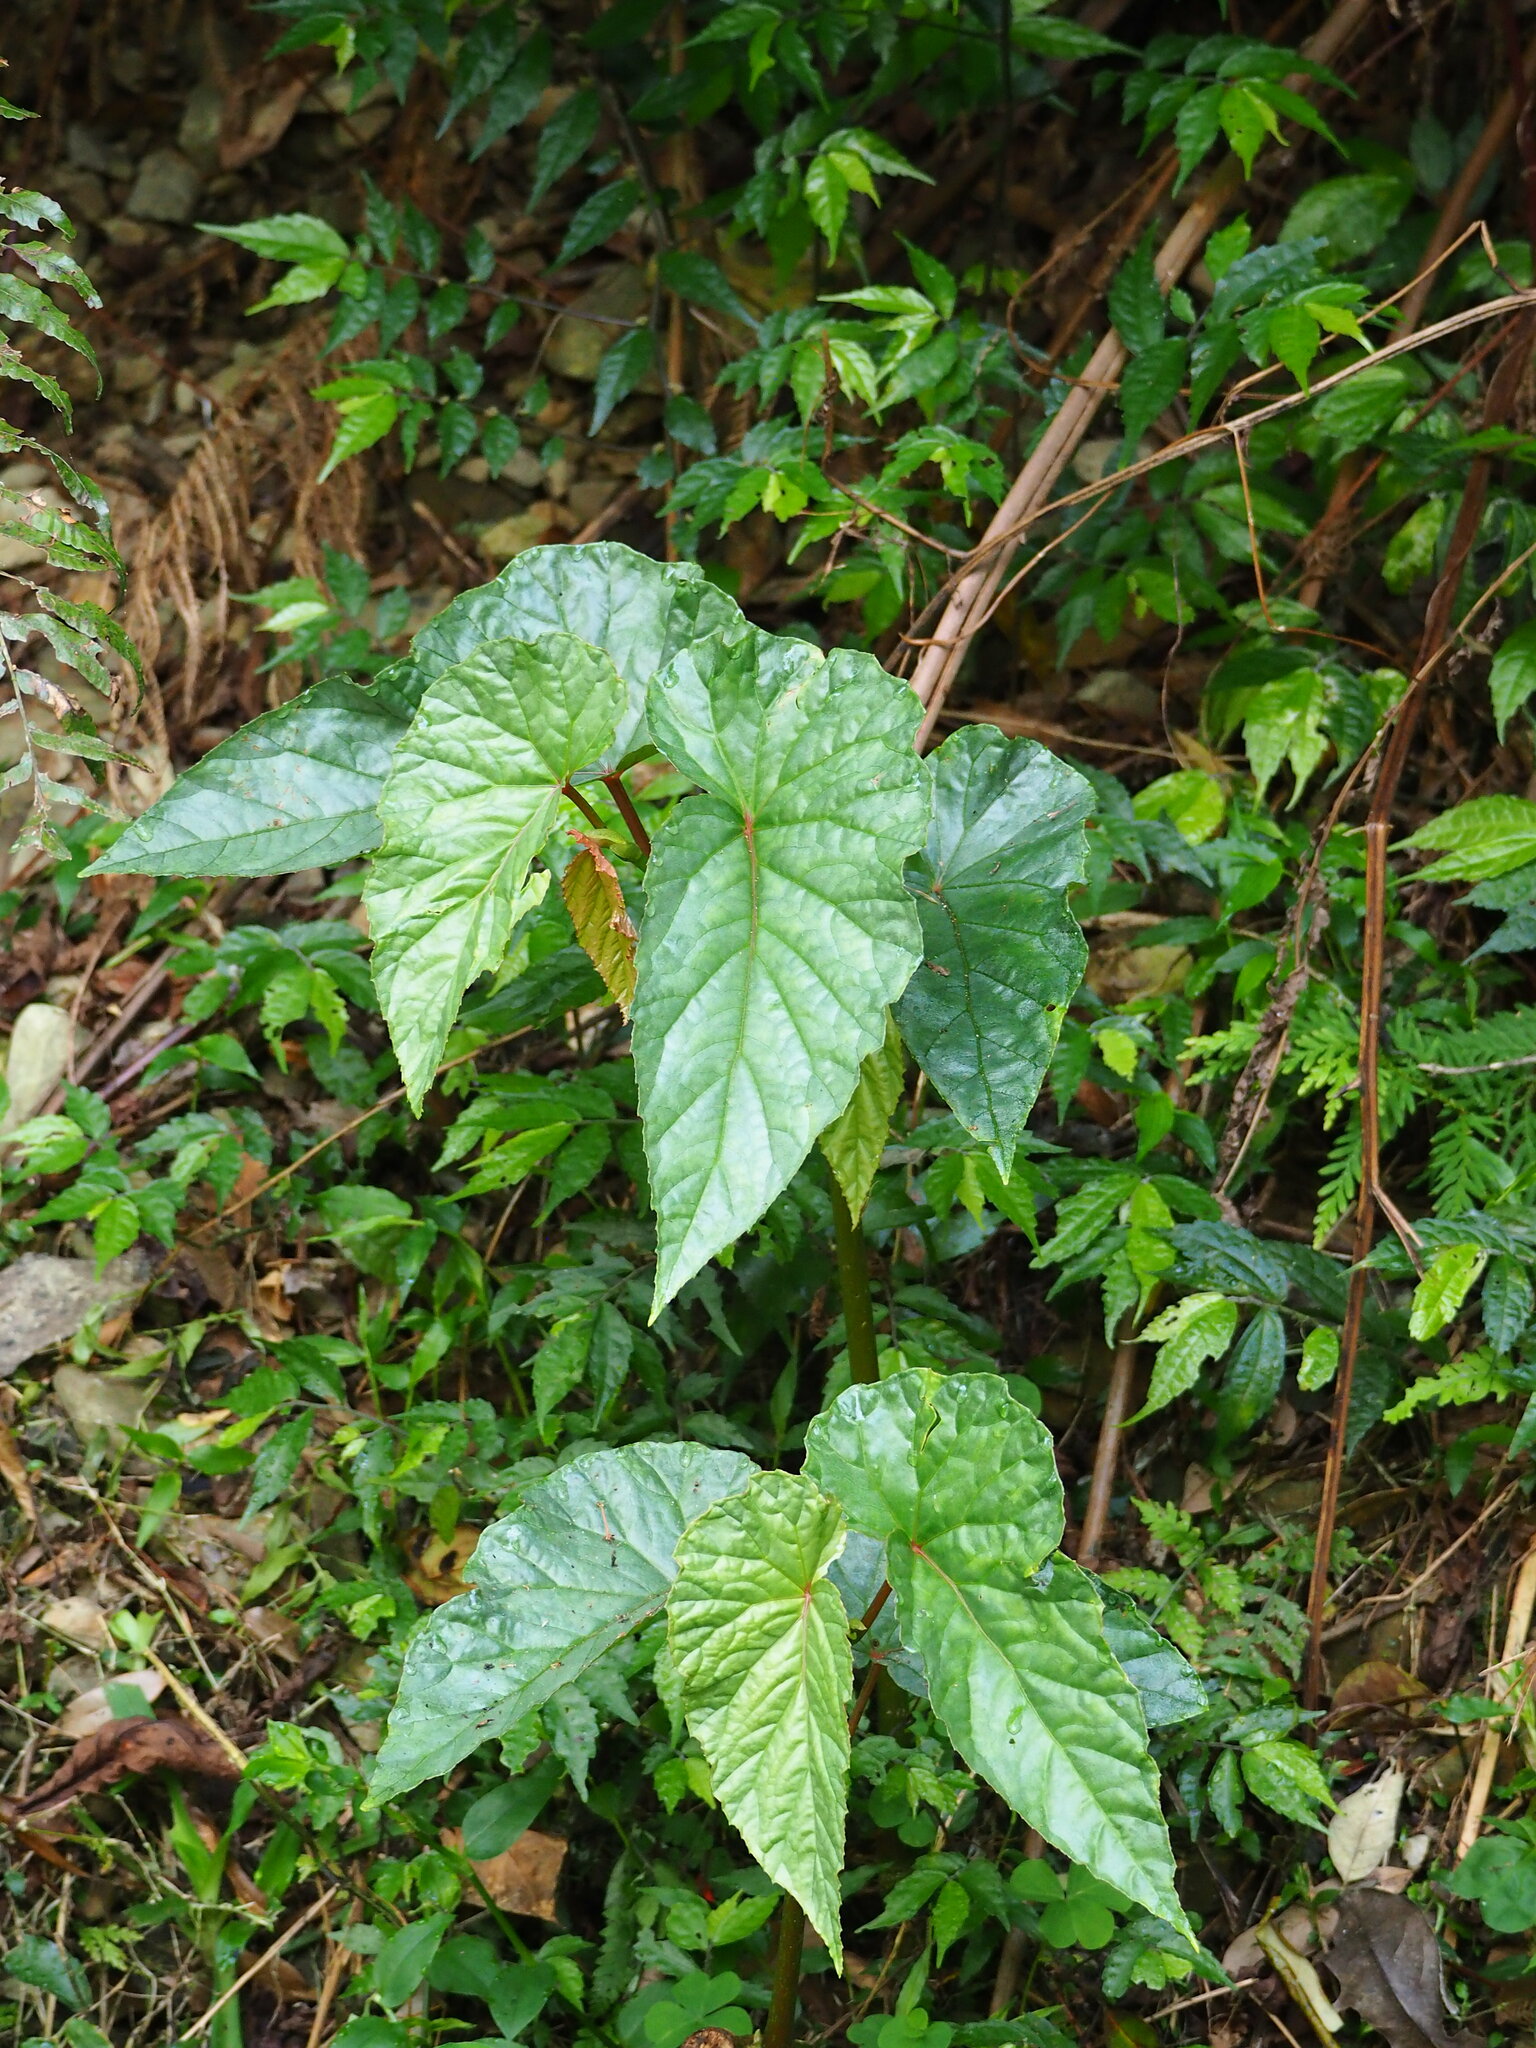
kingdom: Plantae
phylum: Tracheophyta
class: Magnoliopsida
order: Cucurbitales
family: Begoniaceae
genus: Begonia
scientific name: Begonia longifolia
